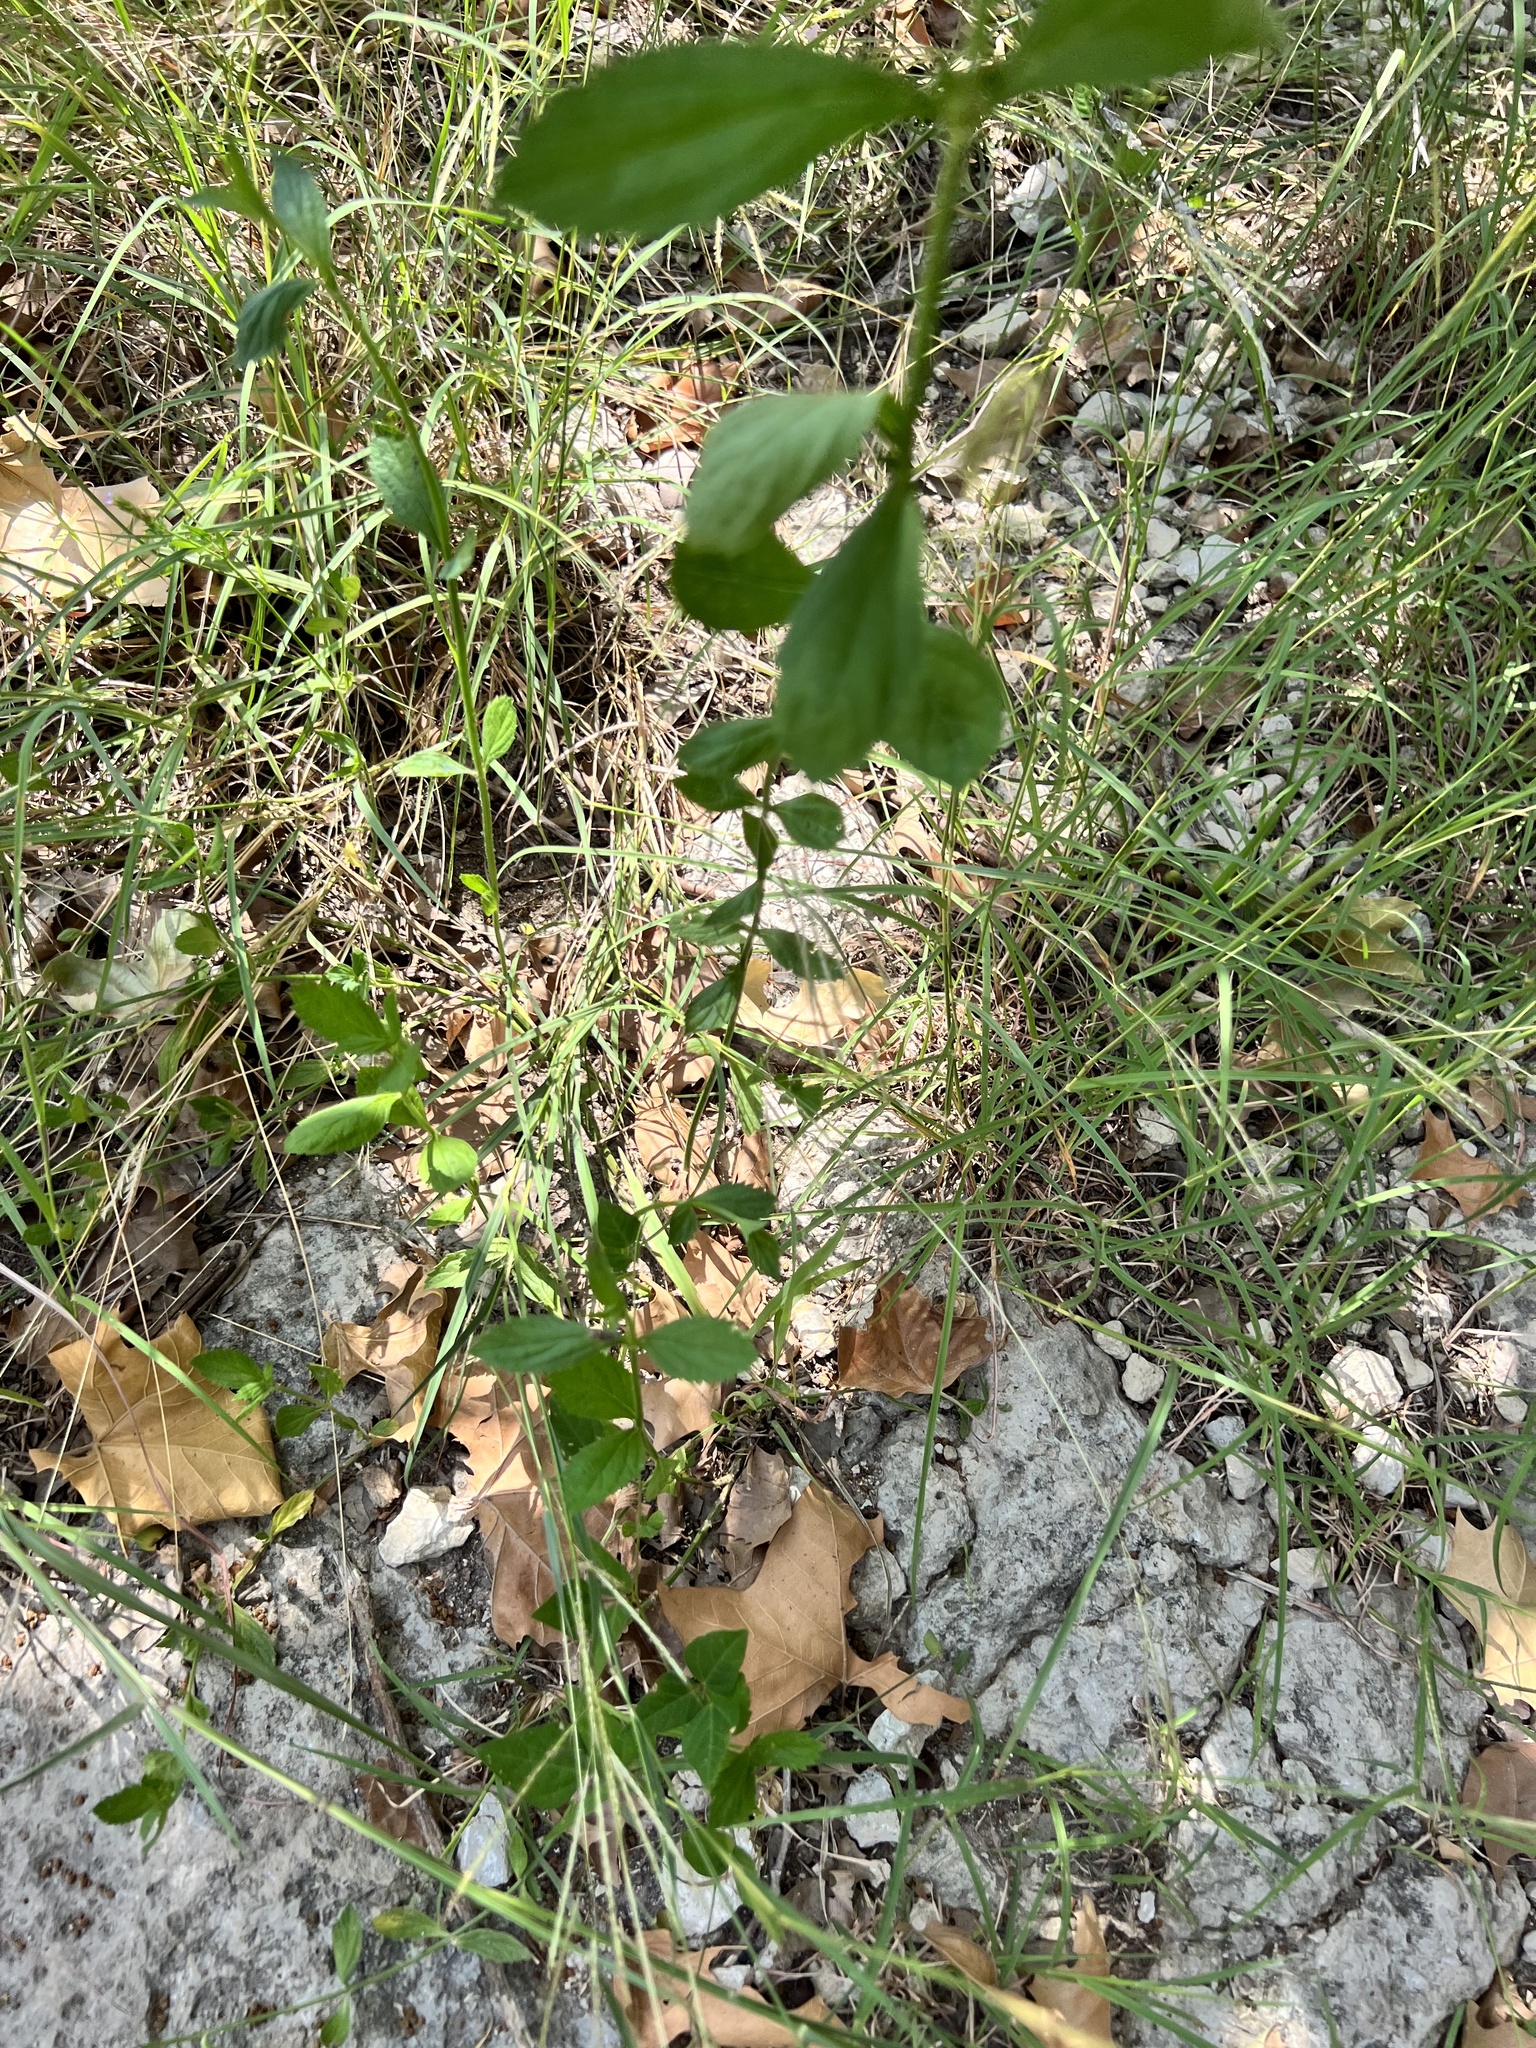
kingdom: Plantae
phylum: Tracheophyta
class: Magnoliopsida
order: Lamiales
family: Verbenaceae
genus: Verbena
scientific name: Verbena brasiliensis
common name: Brazilian vervain
